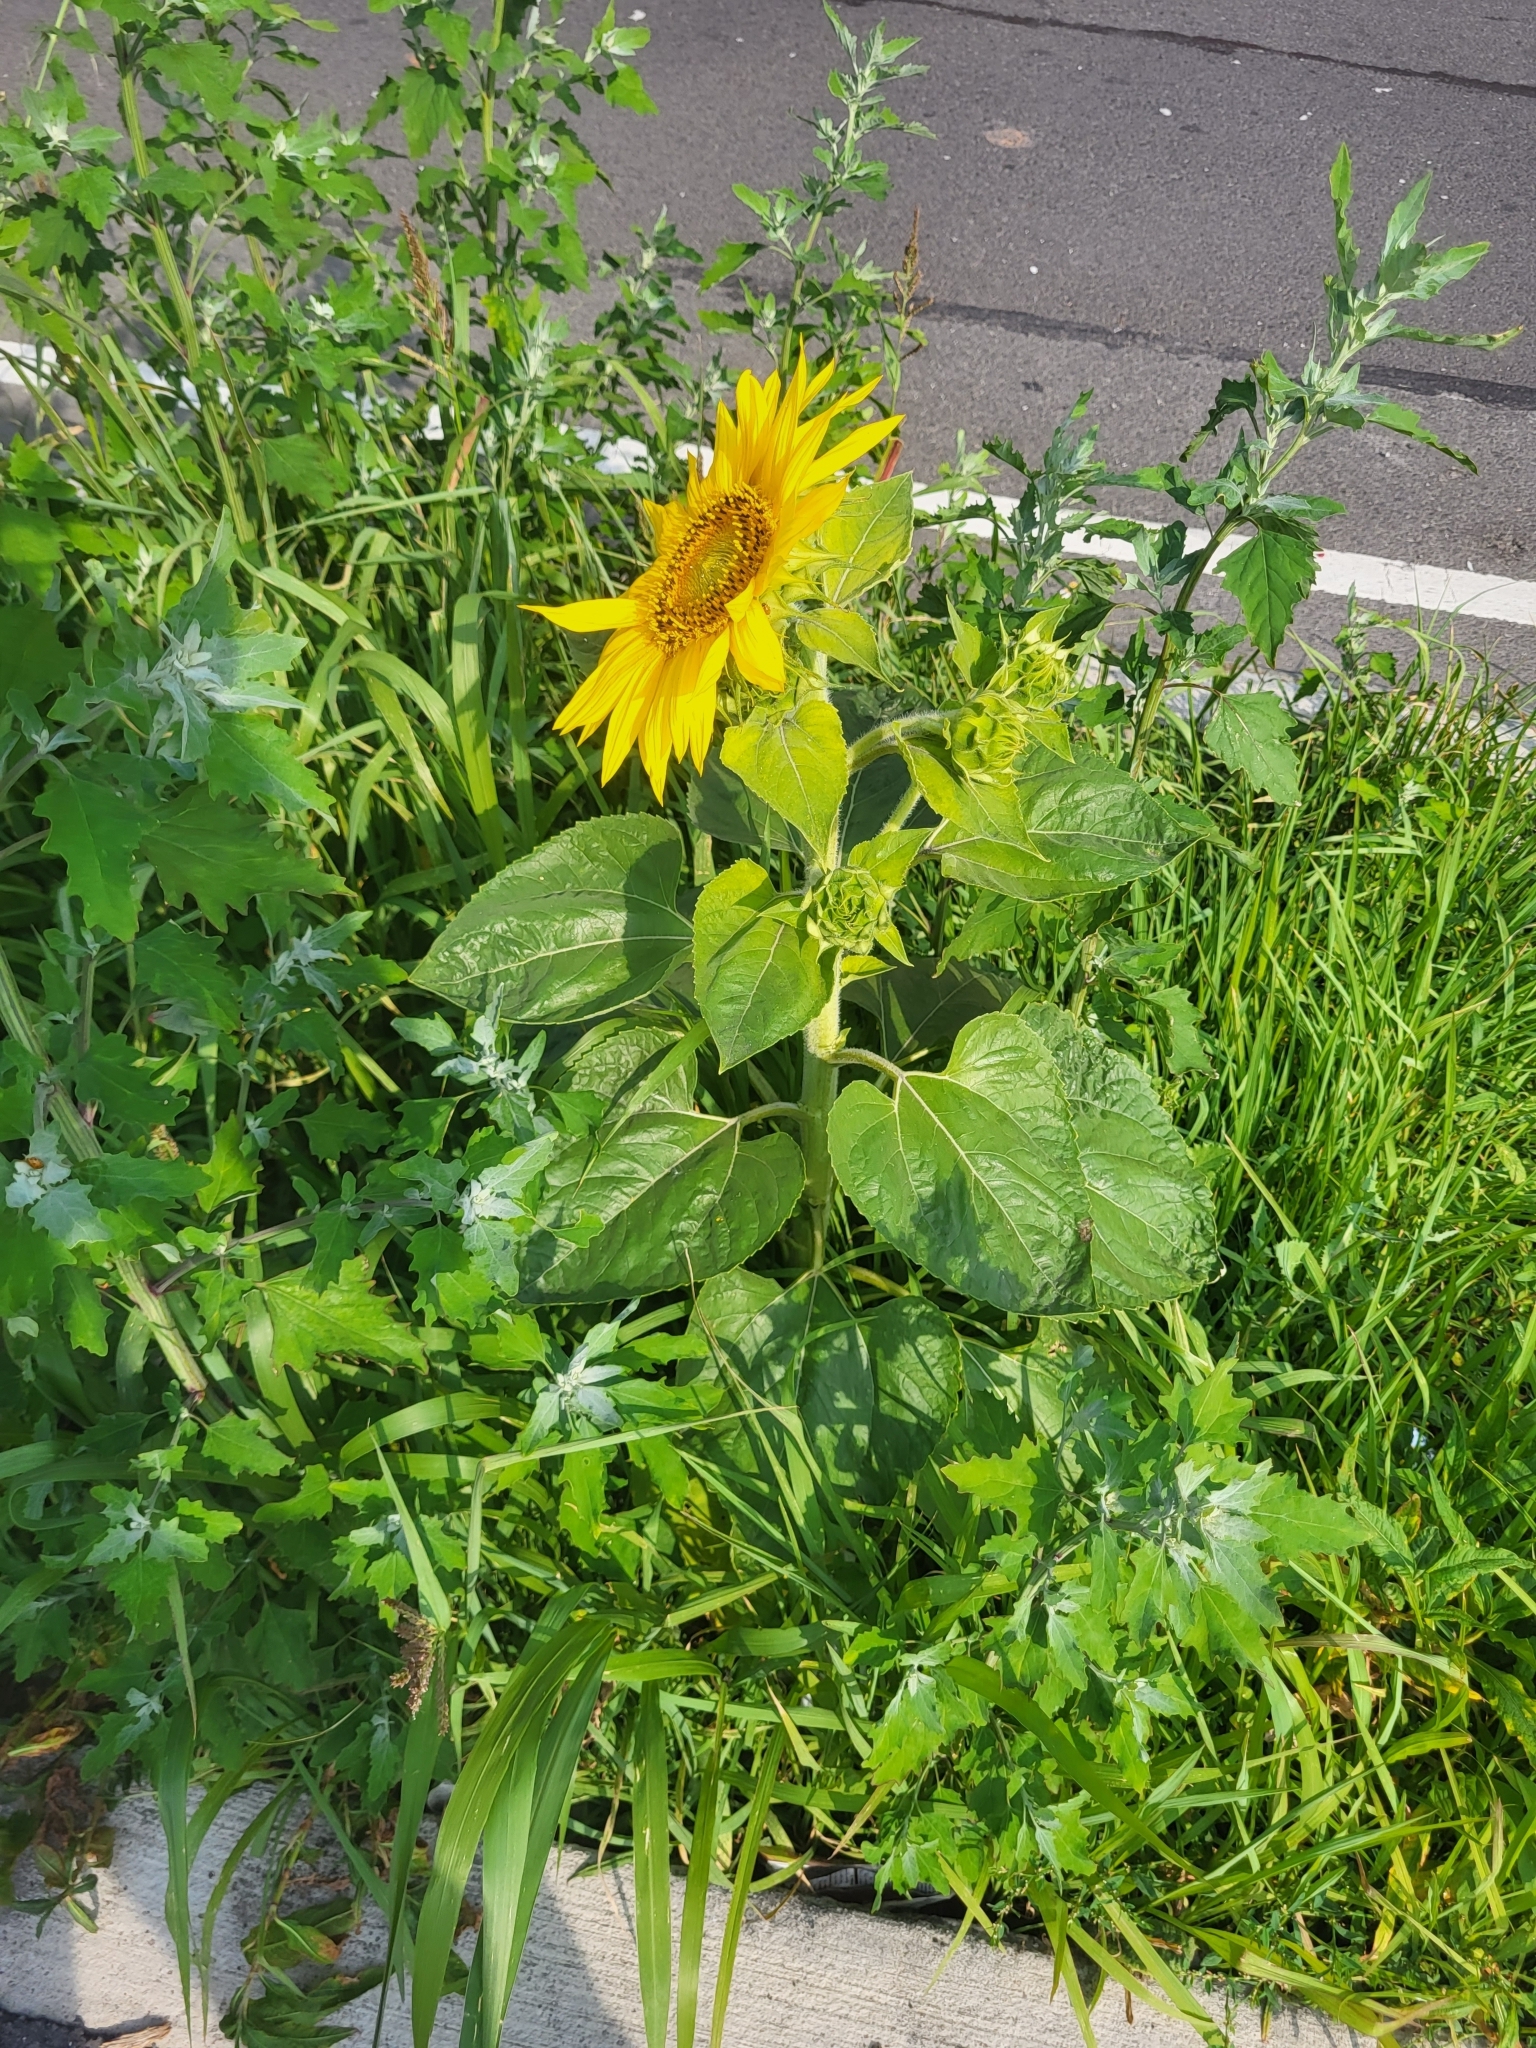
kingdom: Plantae
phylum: Tracheophyta
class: Magnoliopsida
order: Asterales
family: Asteraceae
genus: Helianthus
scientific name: Helianthus annuus
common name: Sunflower
